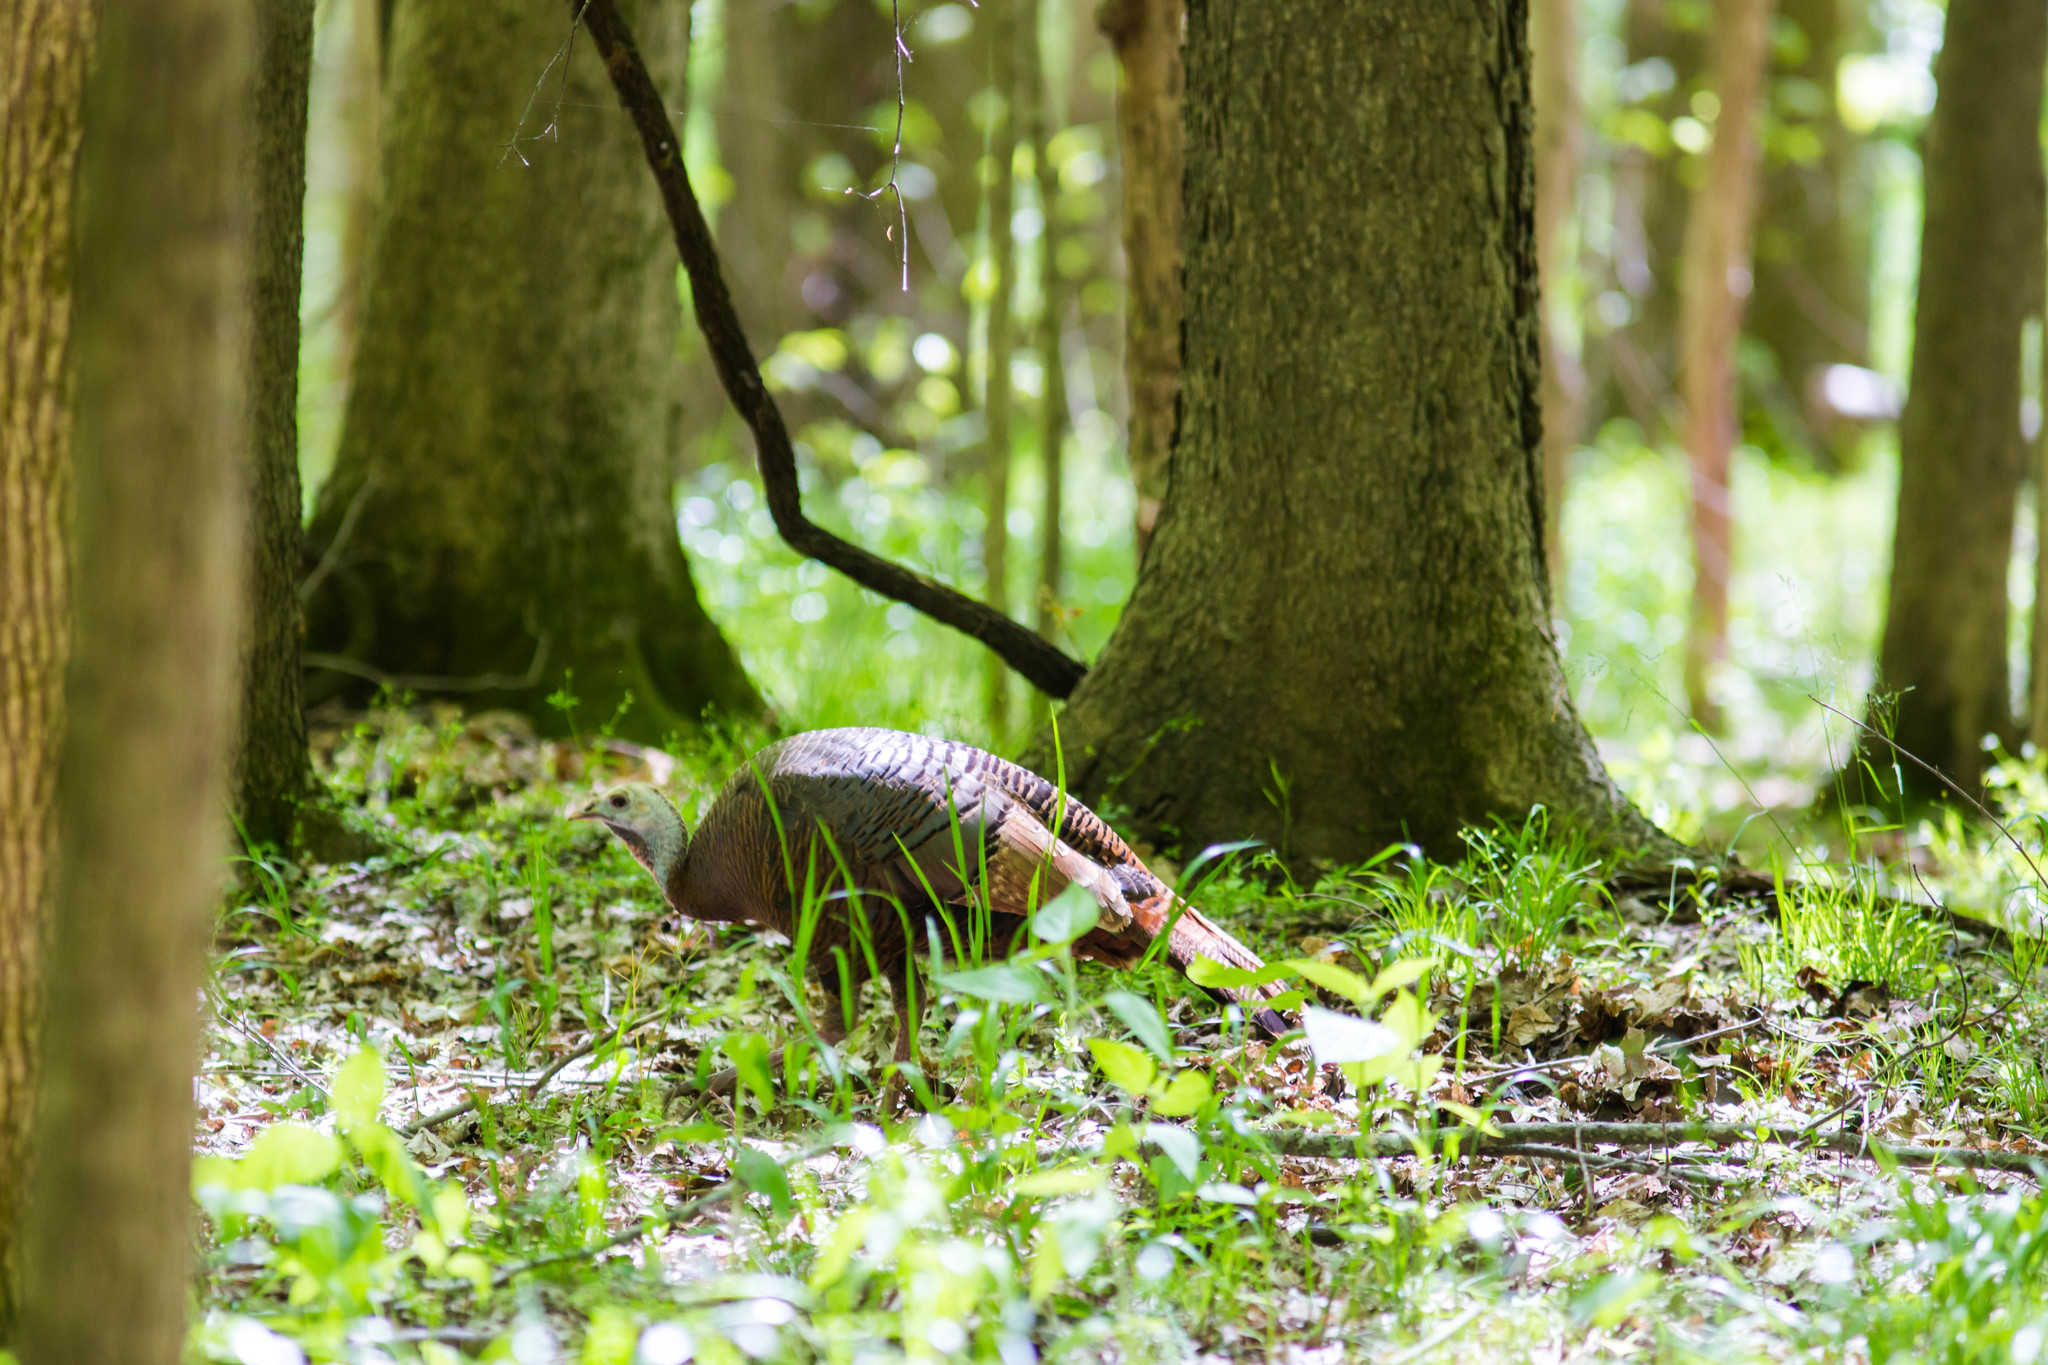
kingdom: Animalia
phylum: Chordata
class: Aves
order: Galliformes
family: Phasianidae
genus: Meleagris
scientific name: Meleagris gallopavo
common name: Wild turkey
